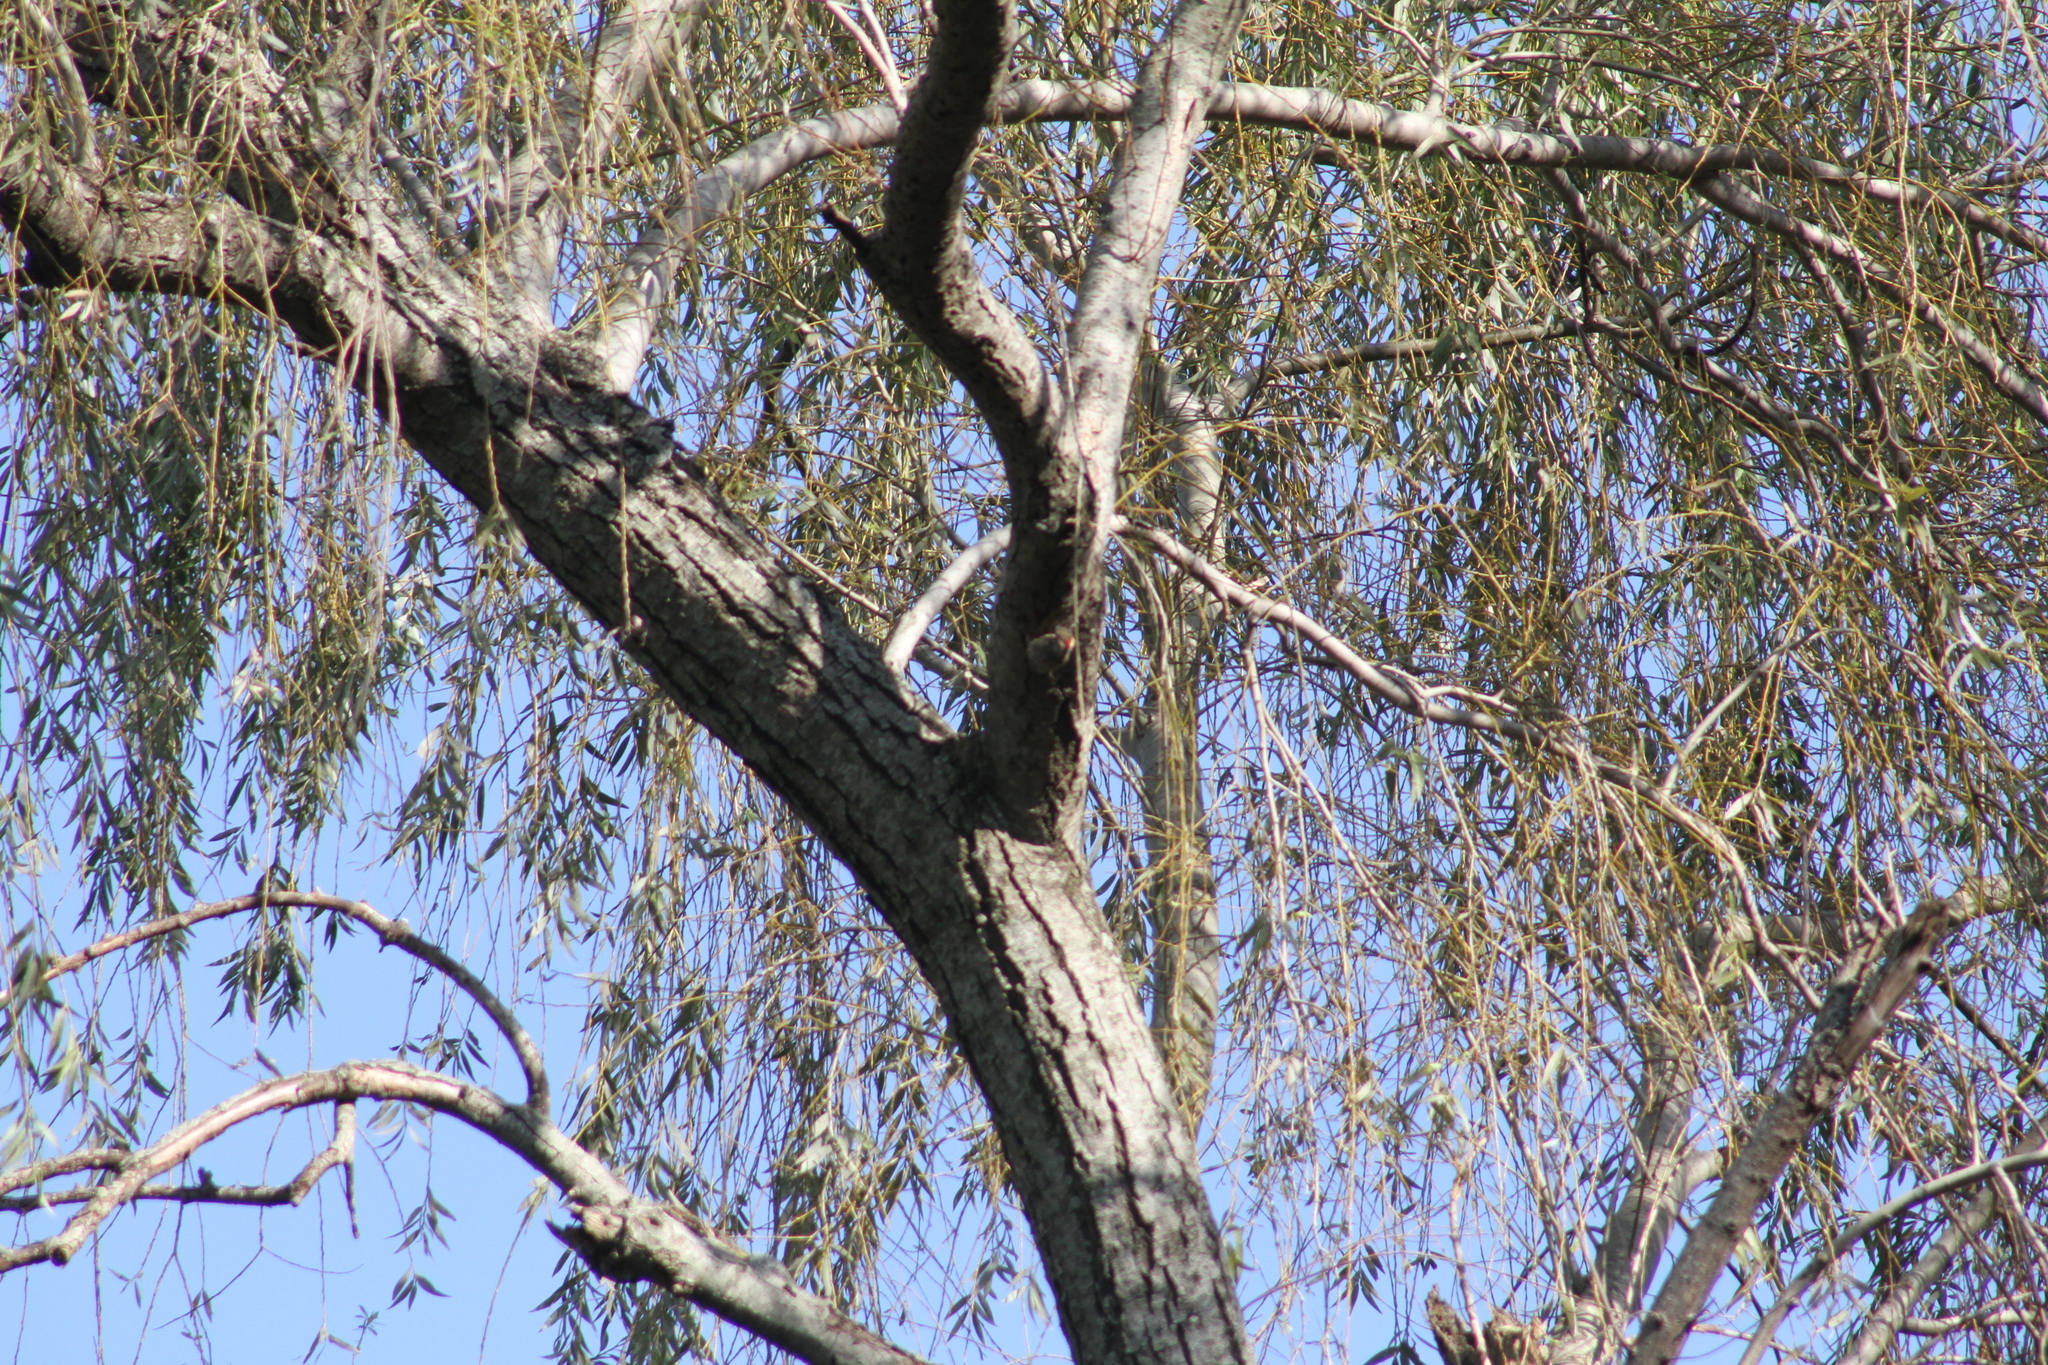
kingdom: Animalia
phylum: Chordata
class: Aves
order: Piciformes
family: Picidae
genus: Colaptes
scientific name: Colaptes melanochloros
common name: Green-barred woodpecker
